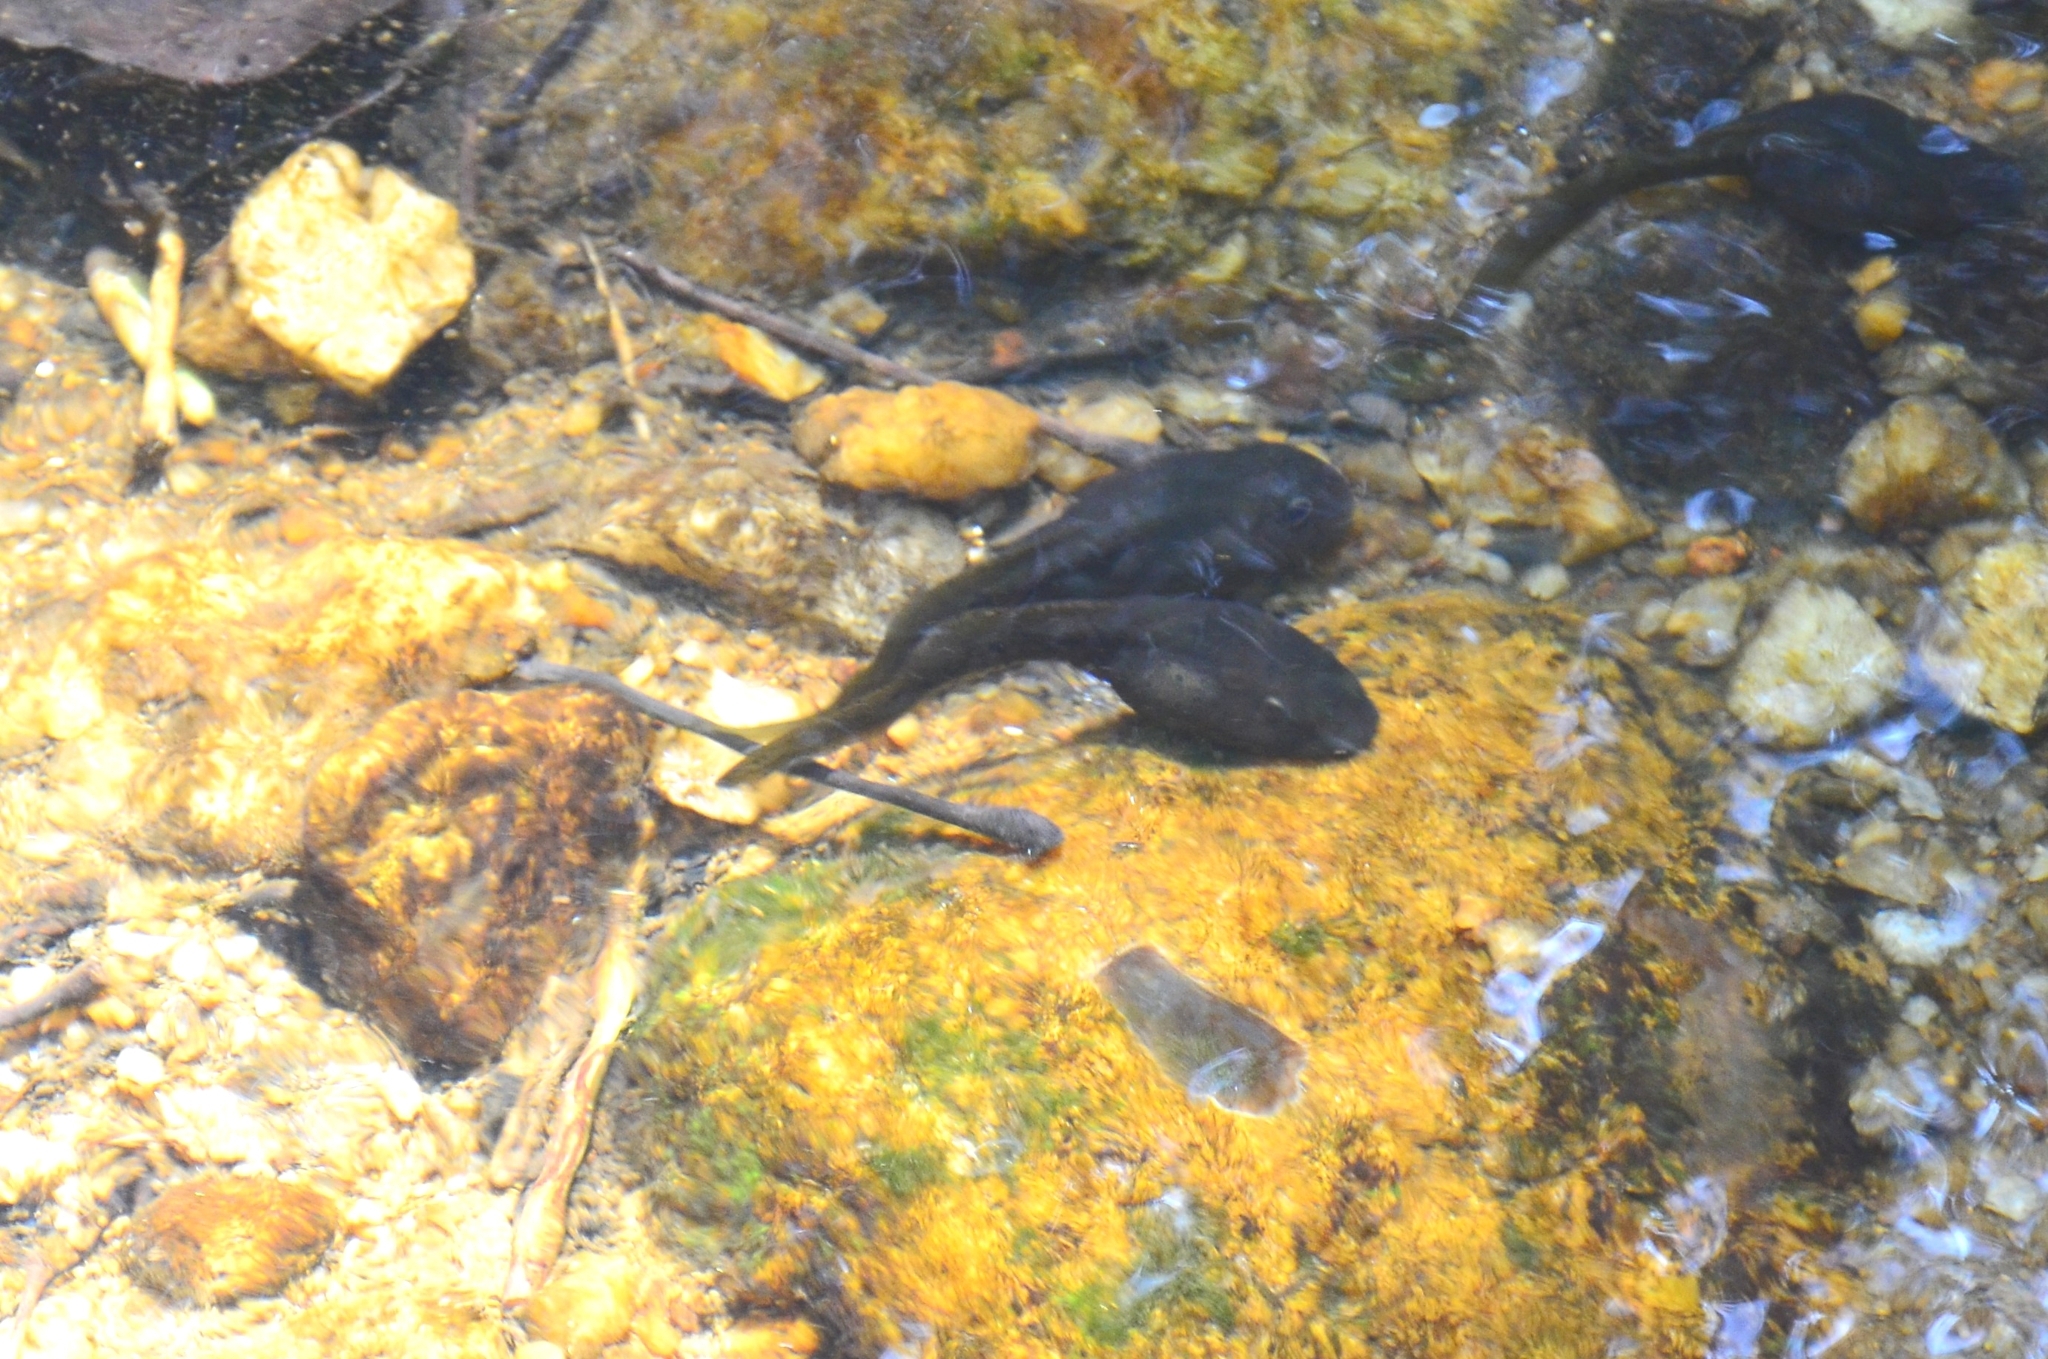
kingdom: Animalia
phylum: Chordata
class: Amphibia
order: Anura
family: Ranidae
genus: Clinotarsus
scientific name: Clinotarsus curtipes
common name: Bicoloured frog
